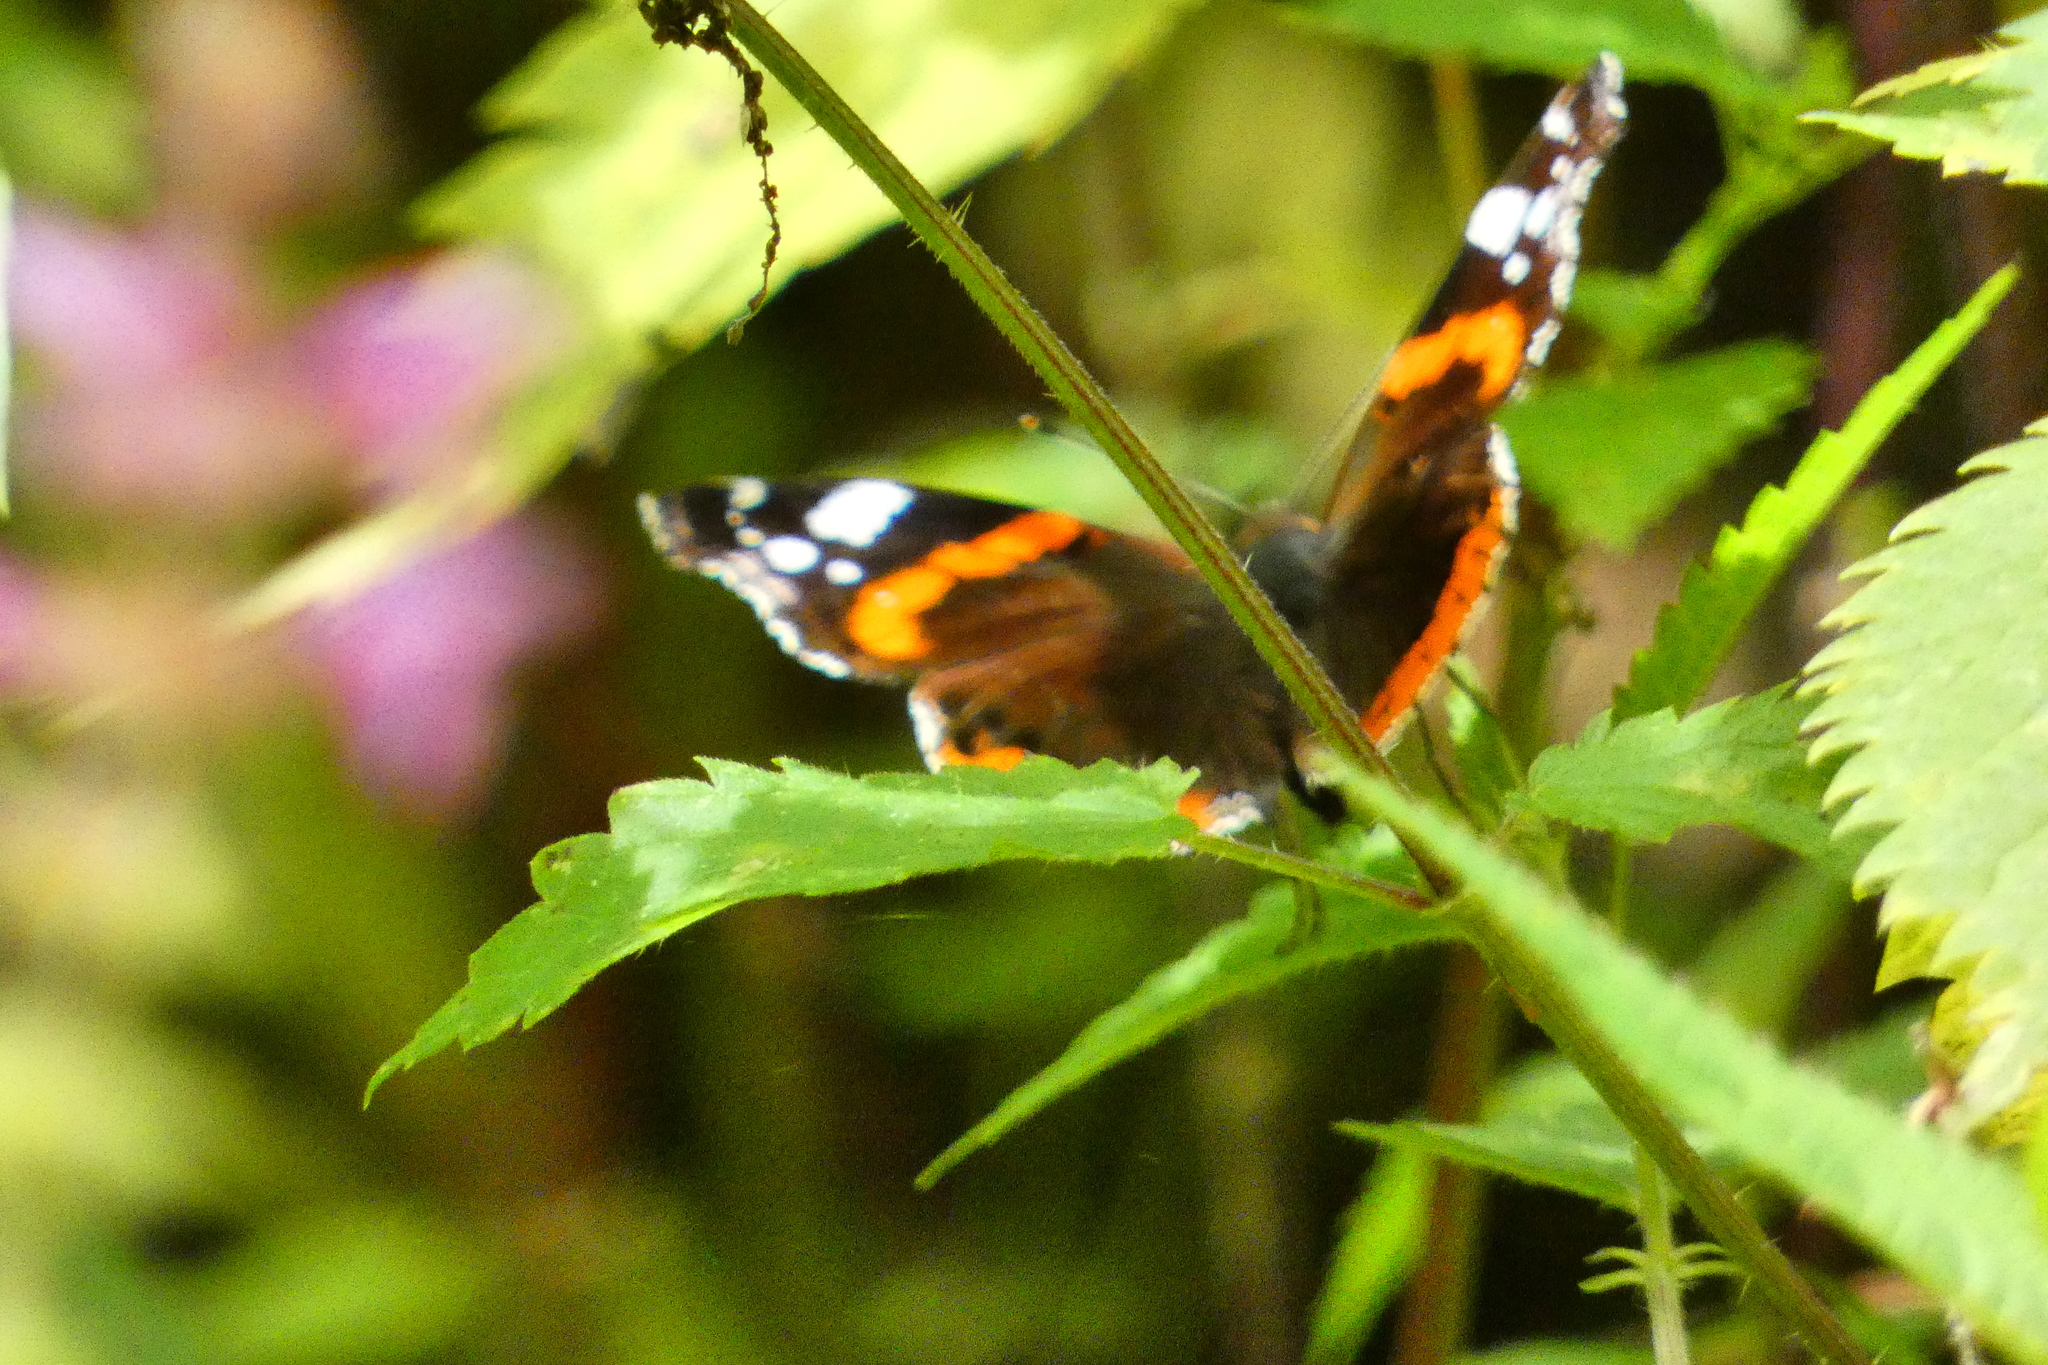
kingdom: Animalia
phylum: Arthropoda
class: Insecta
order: Lepidoptera
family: Nymphalidae
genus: Vanessa
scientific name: Vanessa atalanta
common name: Red admiral
